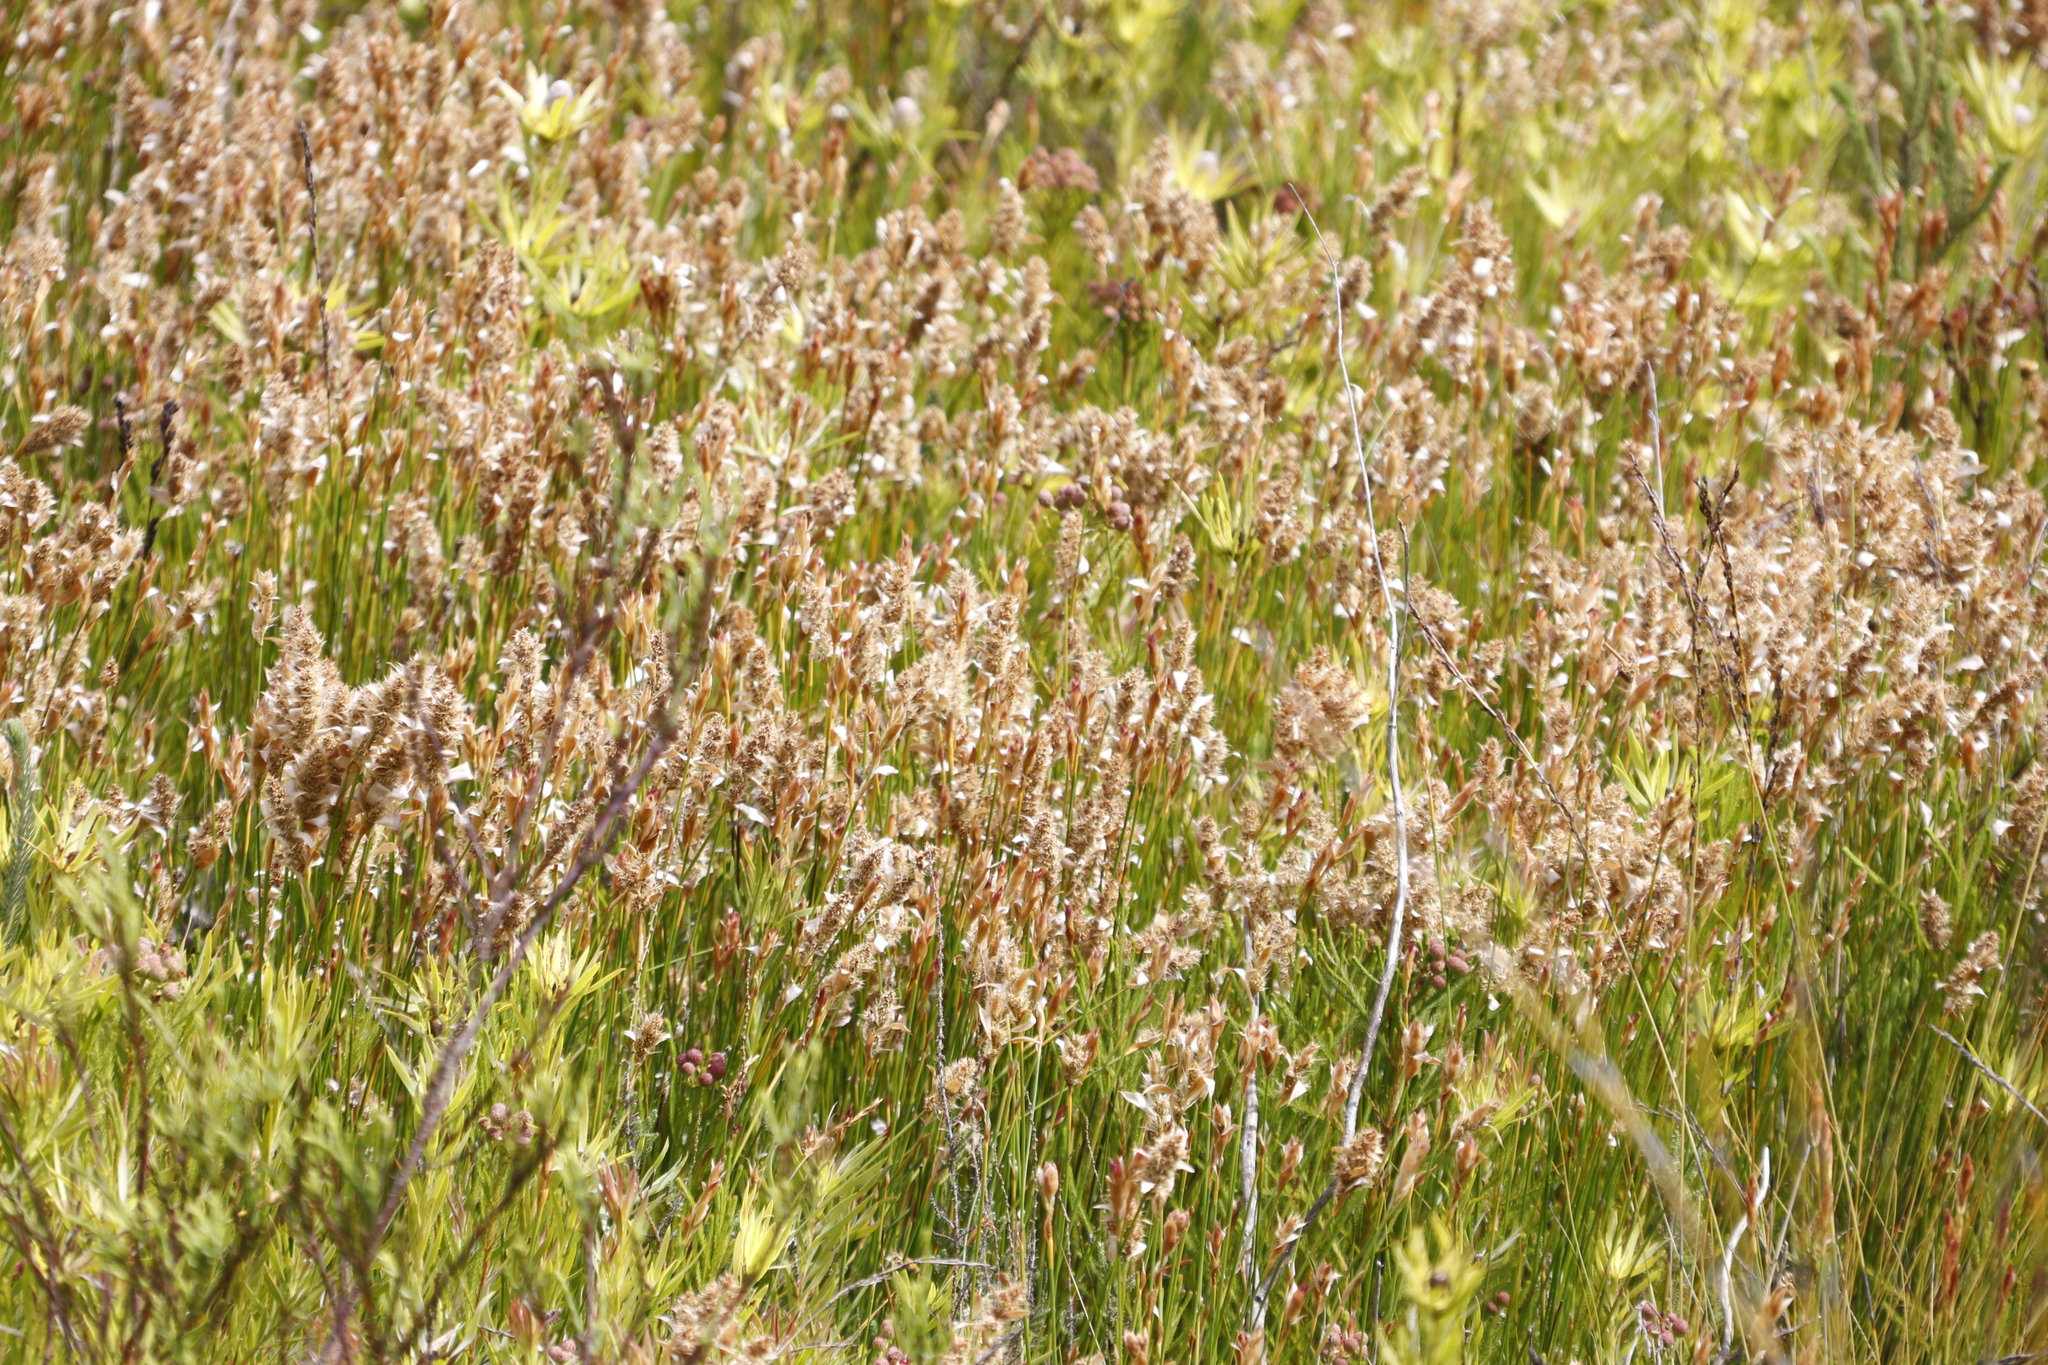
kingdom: Plantae
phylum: Tracheophyta
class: Liliopsida
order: Poales
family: Restionaceae
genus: Elegia
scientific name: Elegia asperiflora
